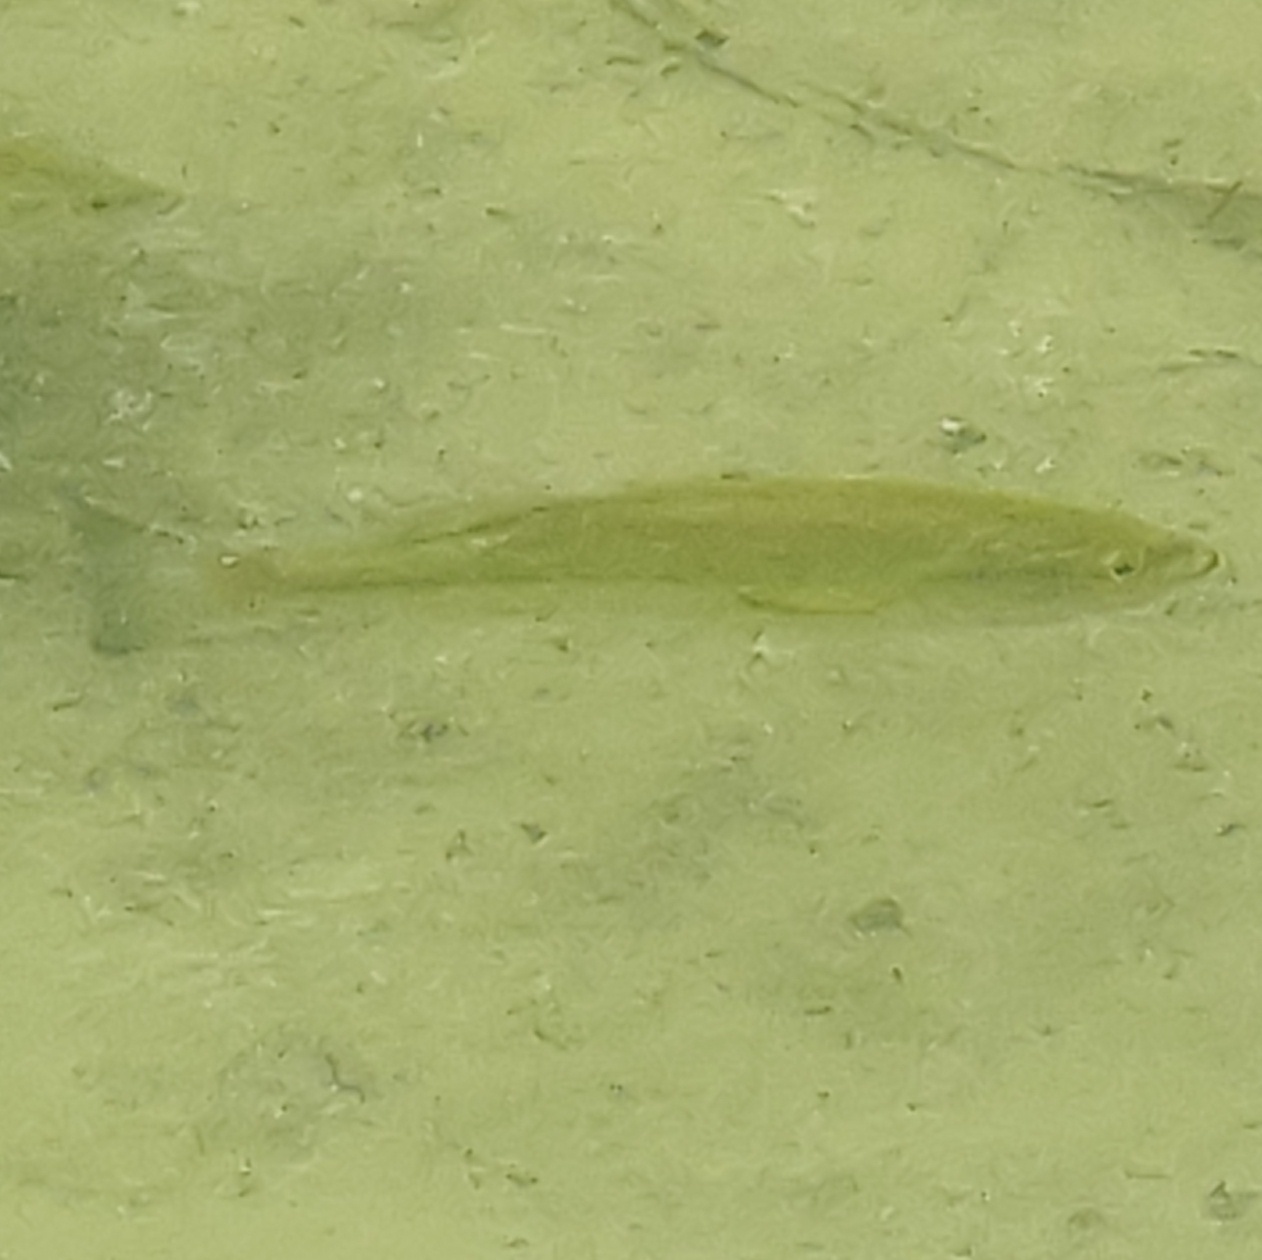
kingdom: Animalia
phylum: Chordata
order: Perciformes
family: Centrarchidae
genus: Micropterus
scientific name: Micropterus
